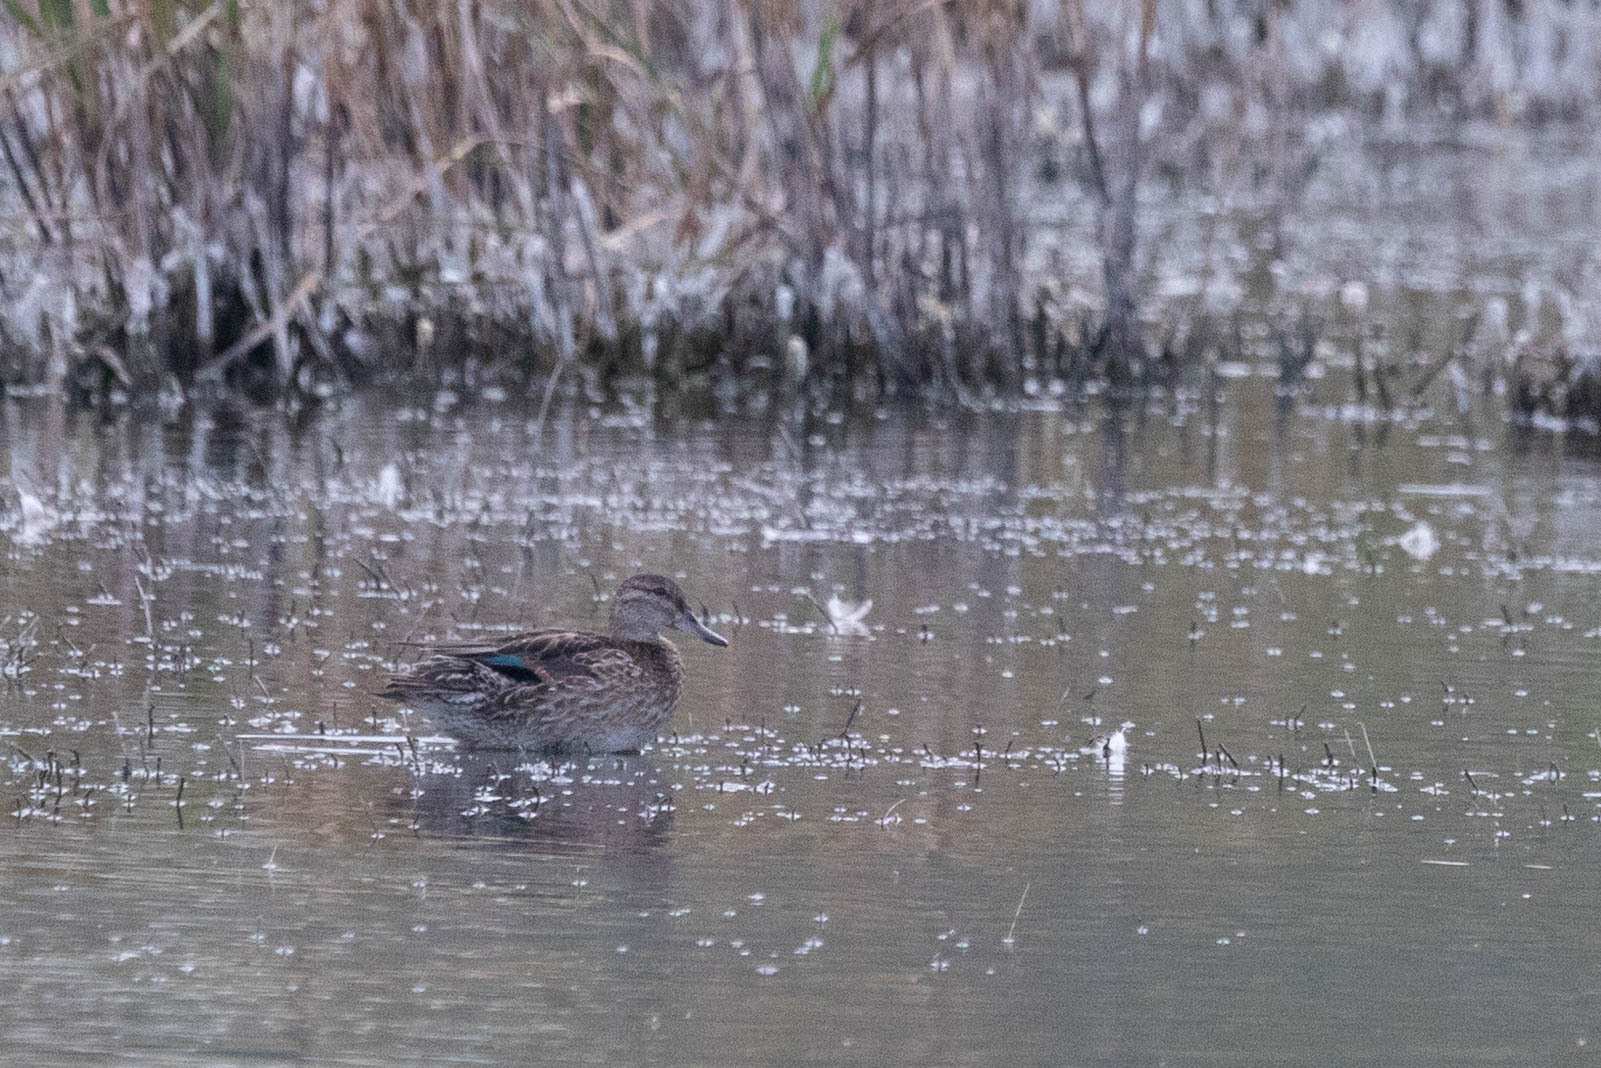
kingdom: Animalia
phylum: Chordata
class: Aves
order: Anseriformes
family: Anatidae
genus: Anas
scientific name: Anas crecca
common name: Eurasian teal
